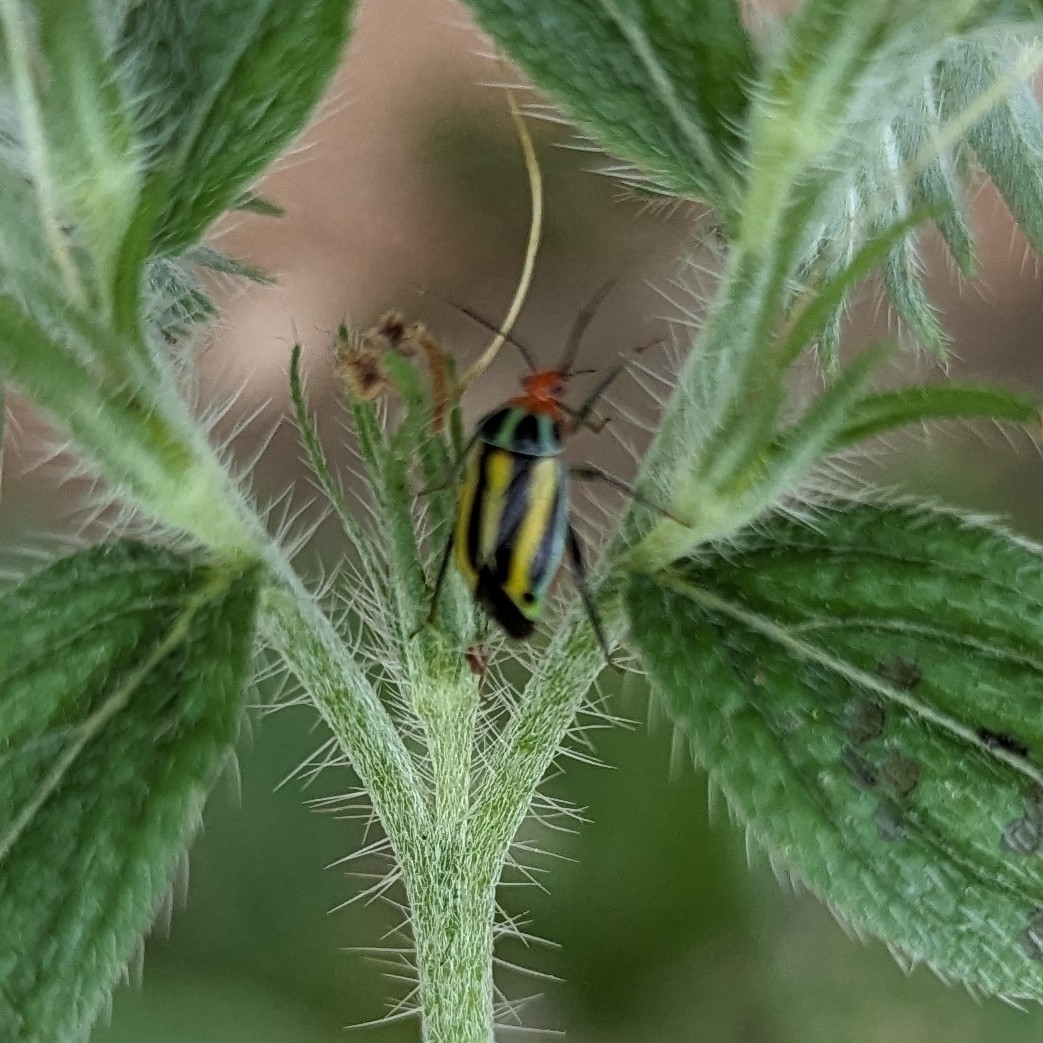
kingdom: Animalia
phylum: Arthropoda
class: Insecta
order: Hemiptera
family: Miridae
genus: Poecilocapsus
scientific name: Poecilocapsus lineatus
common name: Four-lined plant bug
